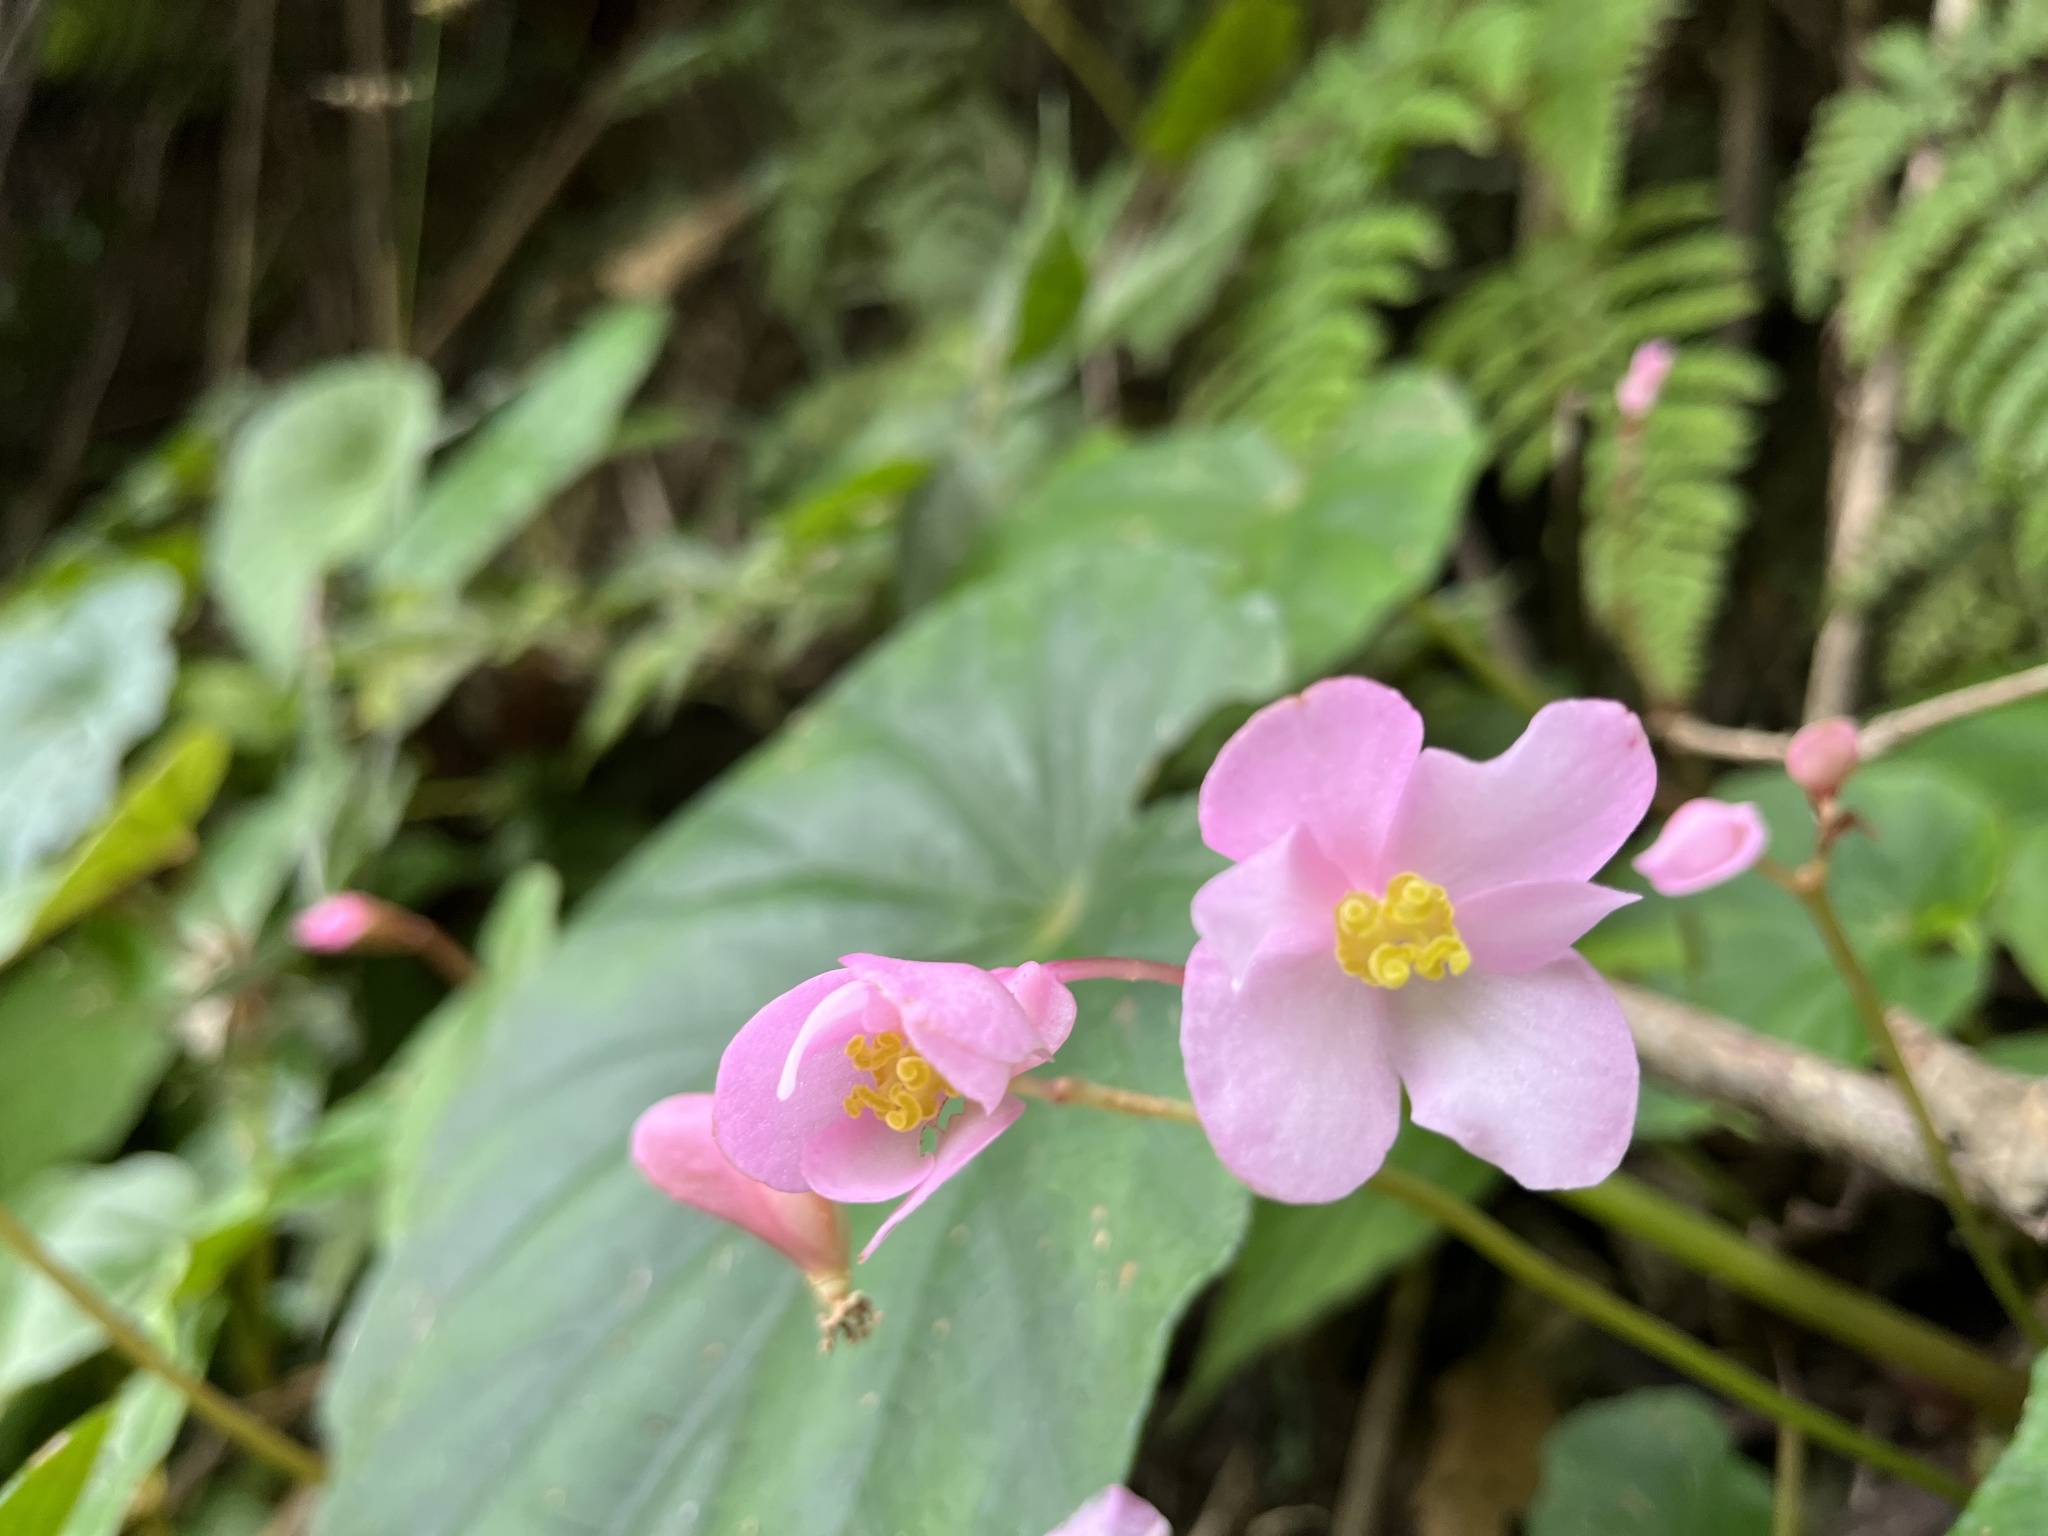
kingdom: Plantae
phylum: Tracheophyta
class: Magnoliopsida
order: Cucurbitales
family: Begoniaceae
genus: Begonia
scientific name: Begonia chitoensis
